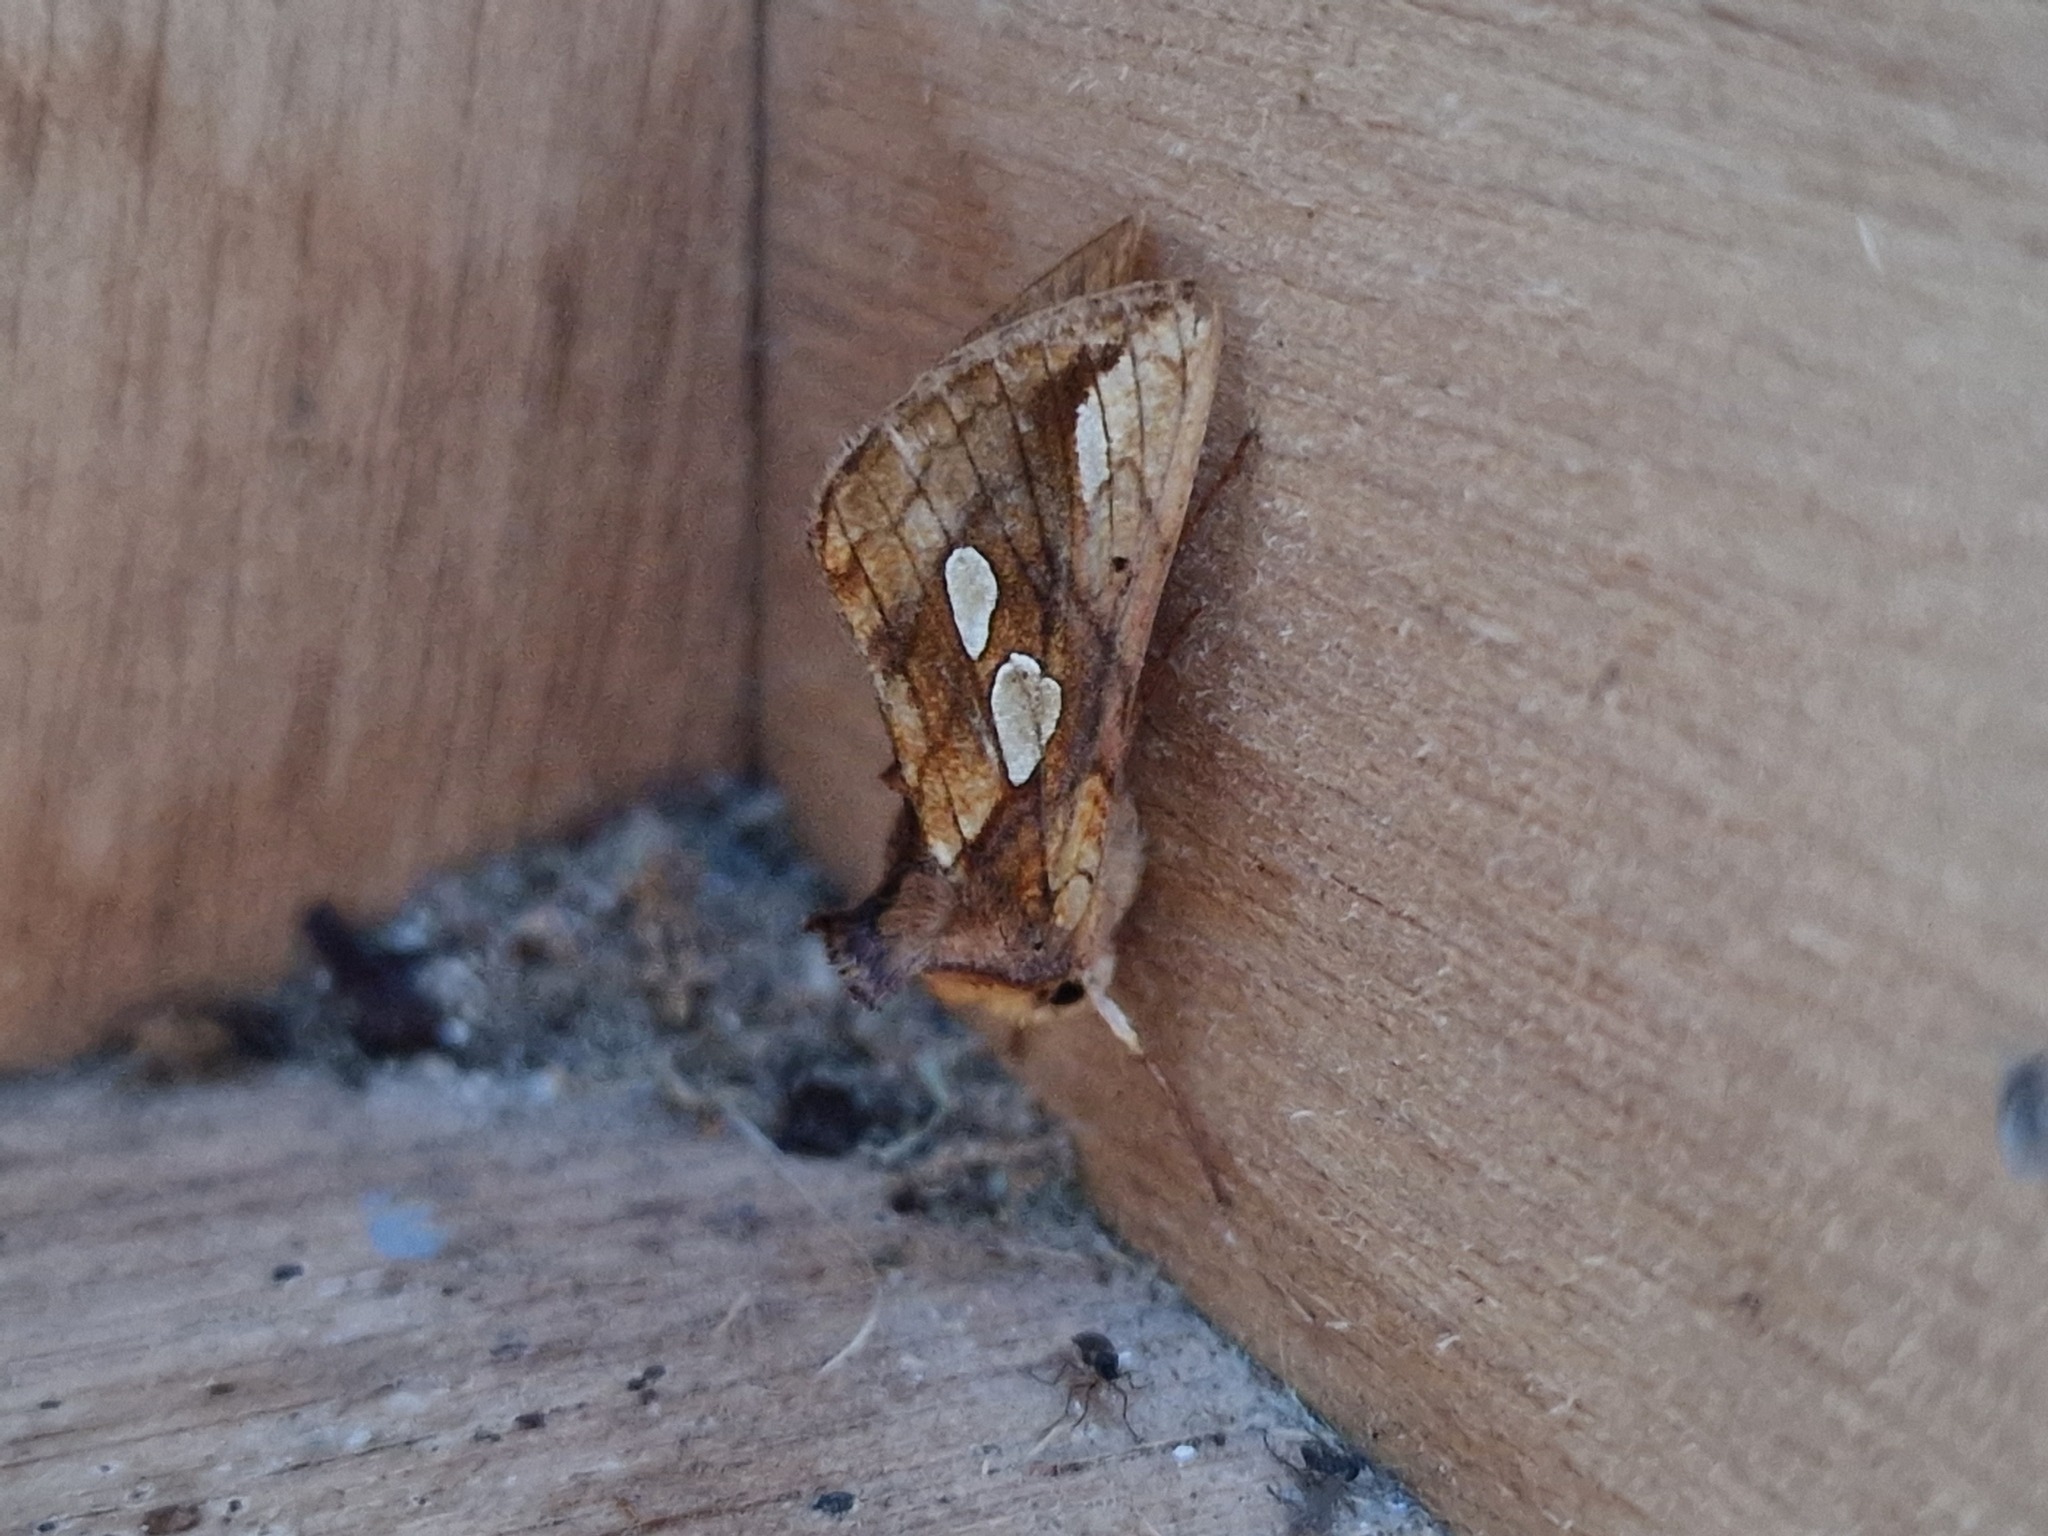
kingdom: Animalia
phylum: Arthropoda
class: Insecta
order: Lepidoptera
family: Noctuidae
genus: Plusia
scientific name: Plusia festucae
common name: Gold spot
